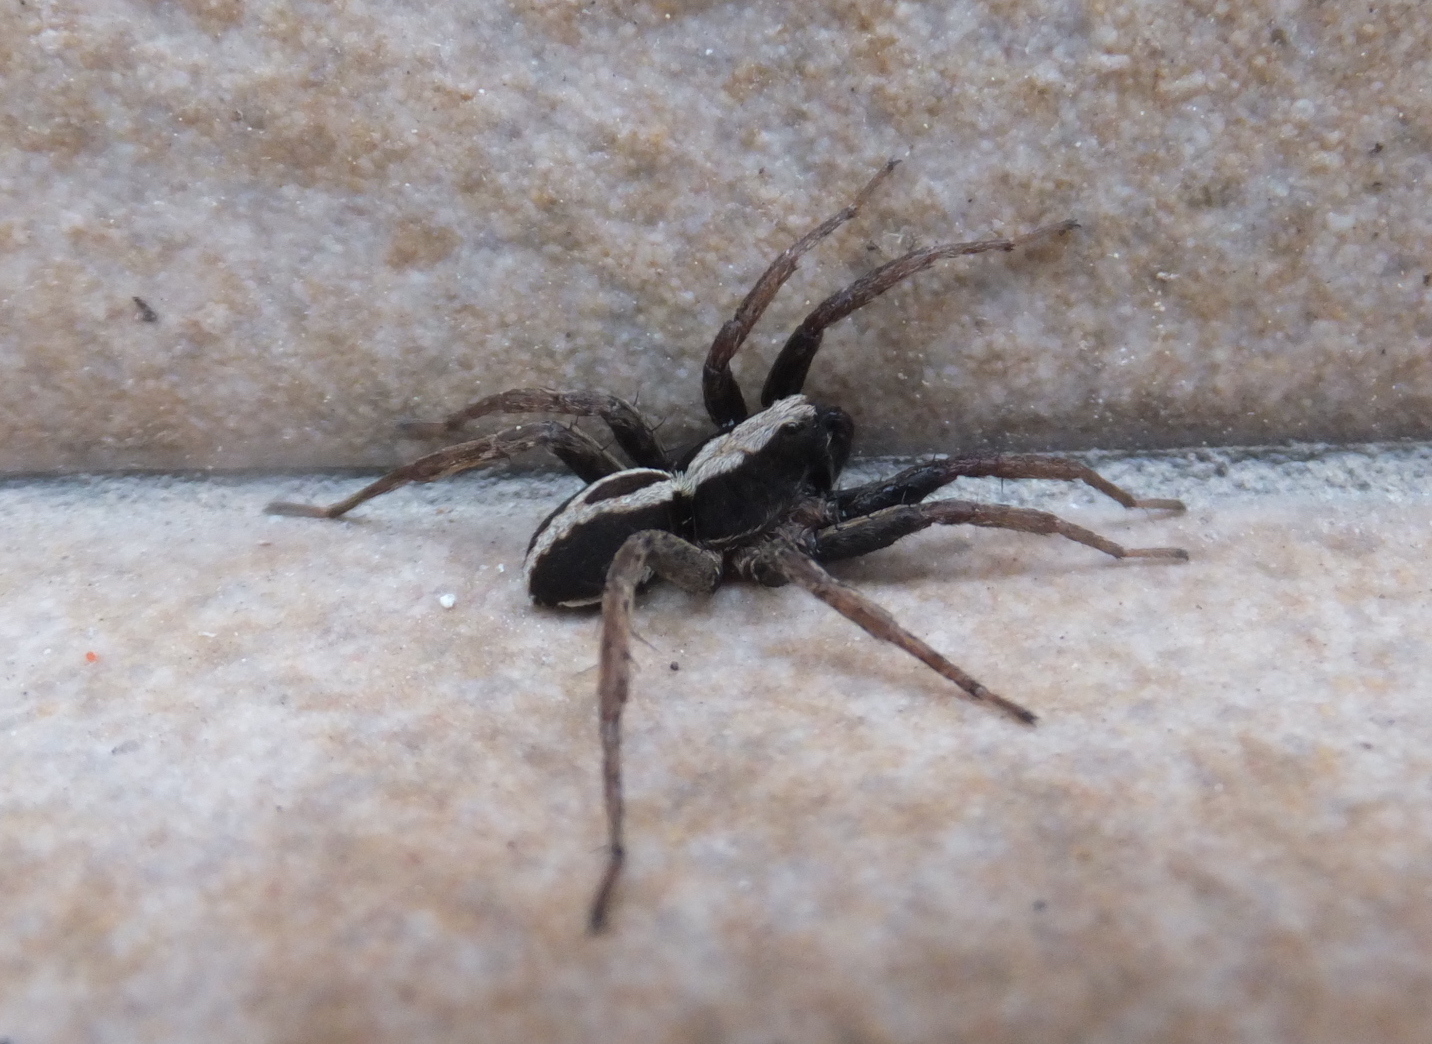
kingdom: Animalia
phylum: Arthropoda
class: Arachnida
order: Araneae
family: Lycosidae
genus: Alopecosa
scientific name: Alopecosa albofasciata
